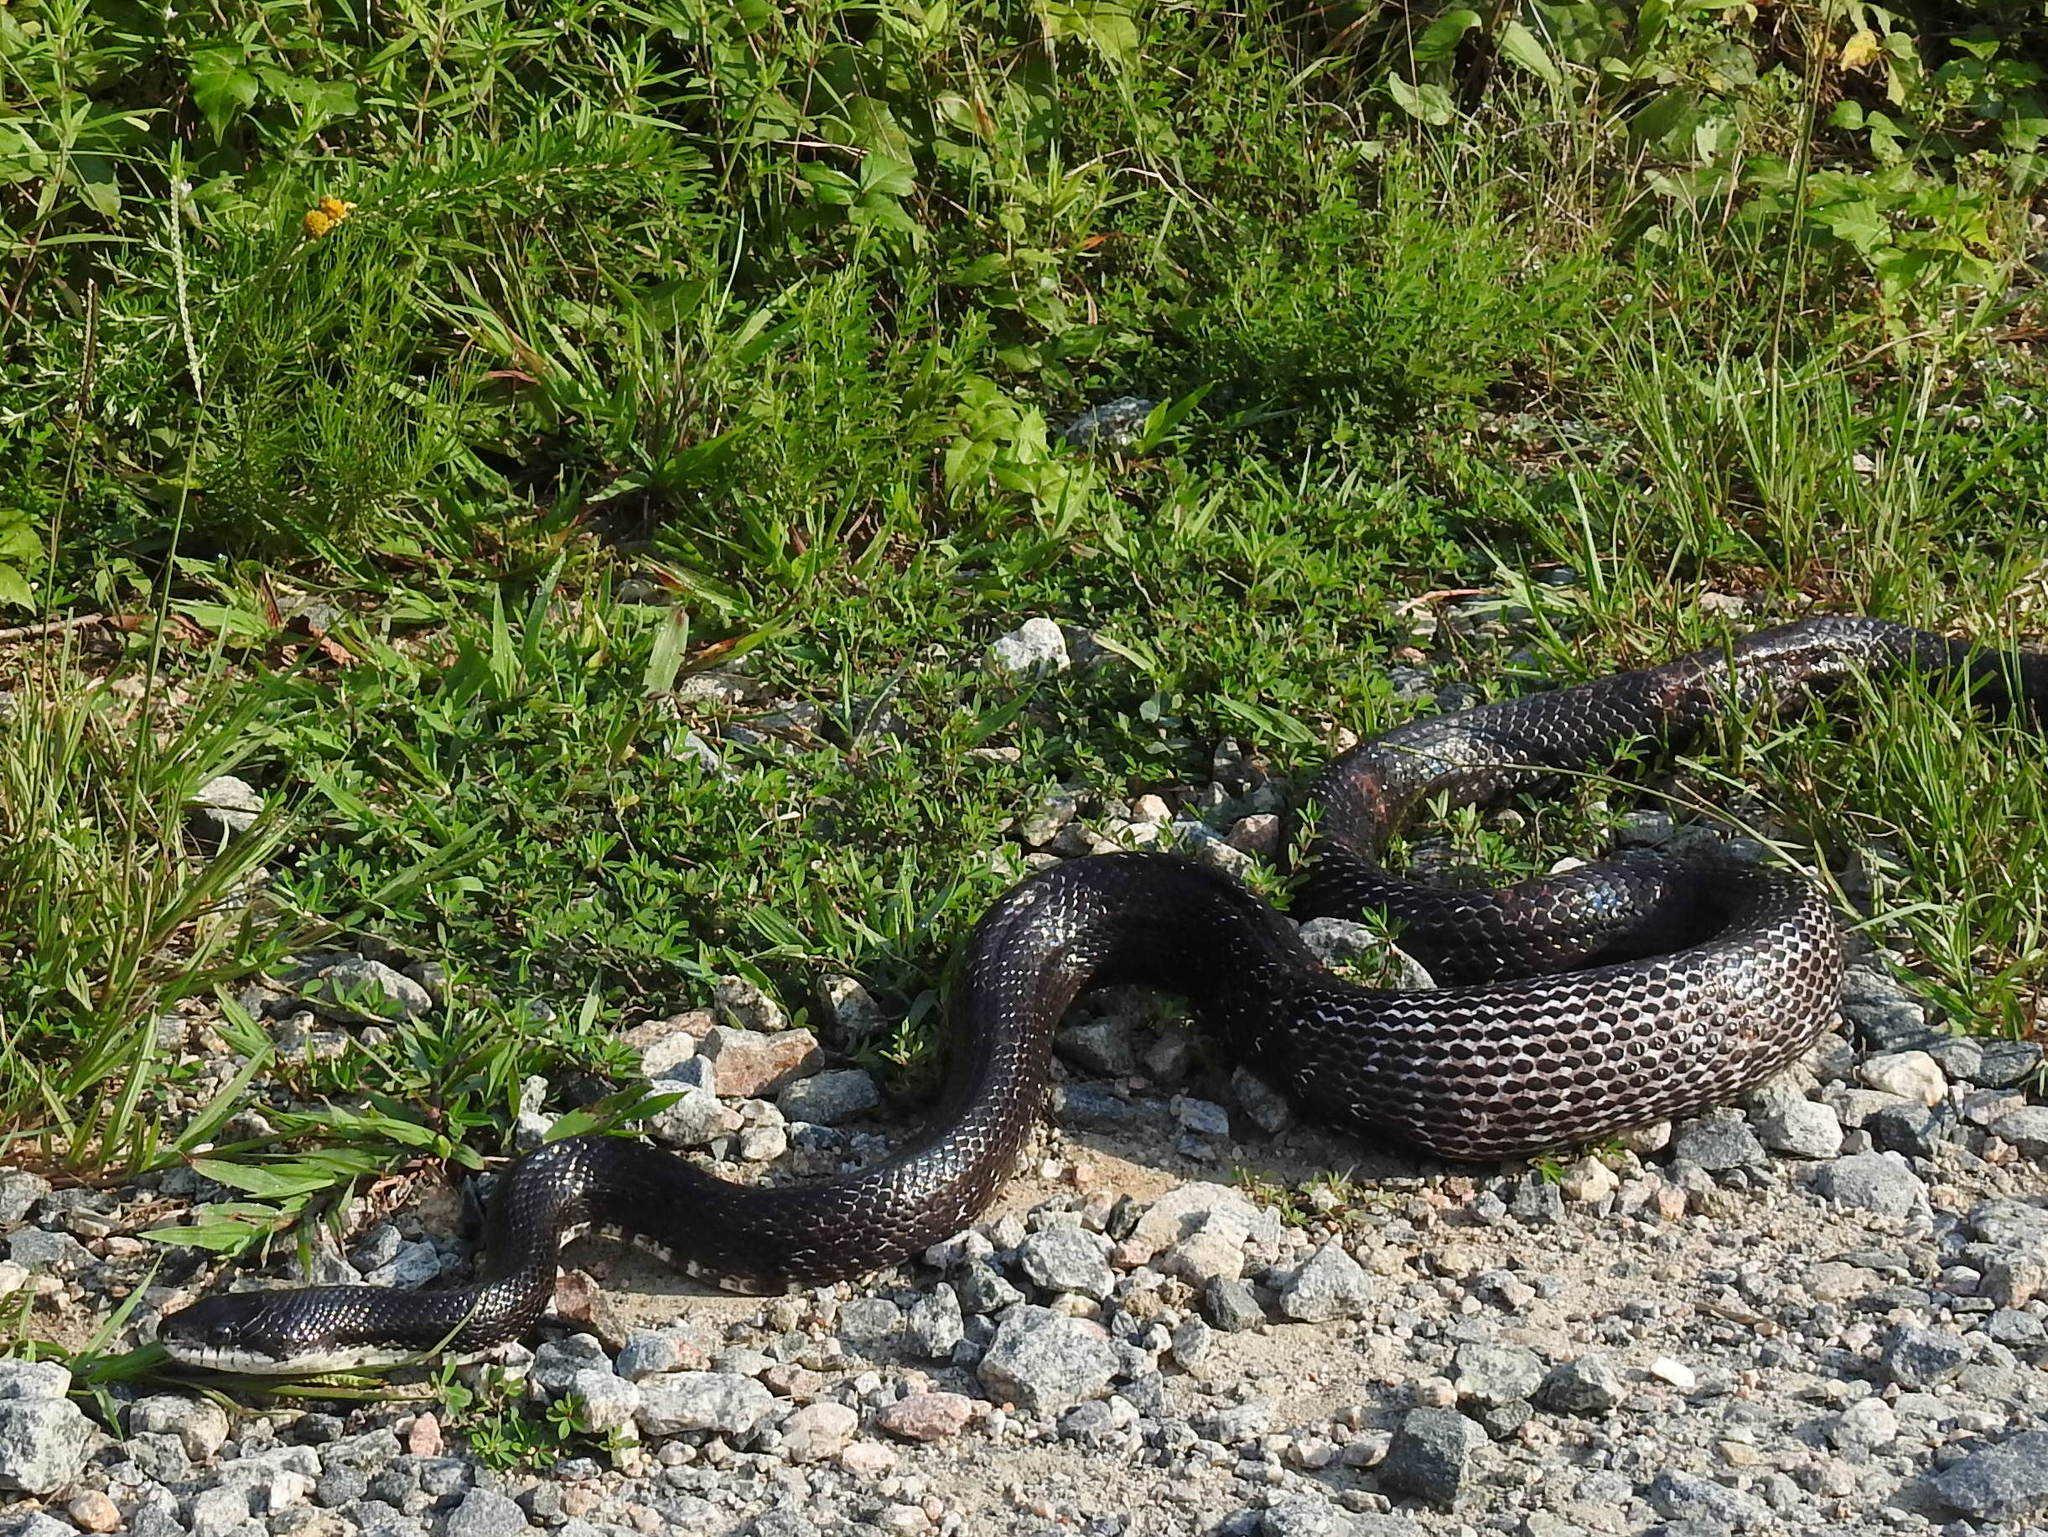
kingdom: Animalia
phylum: Chordata
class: Squamata
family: Colubridae
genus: Pantherophis
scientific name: Pantherophis alleghaniensis
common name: Eastern rat snake
